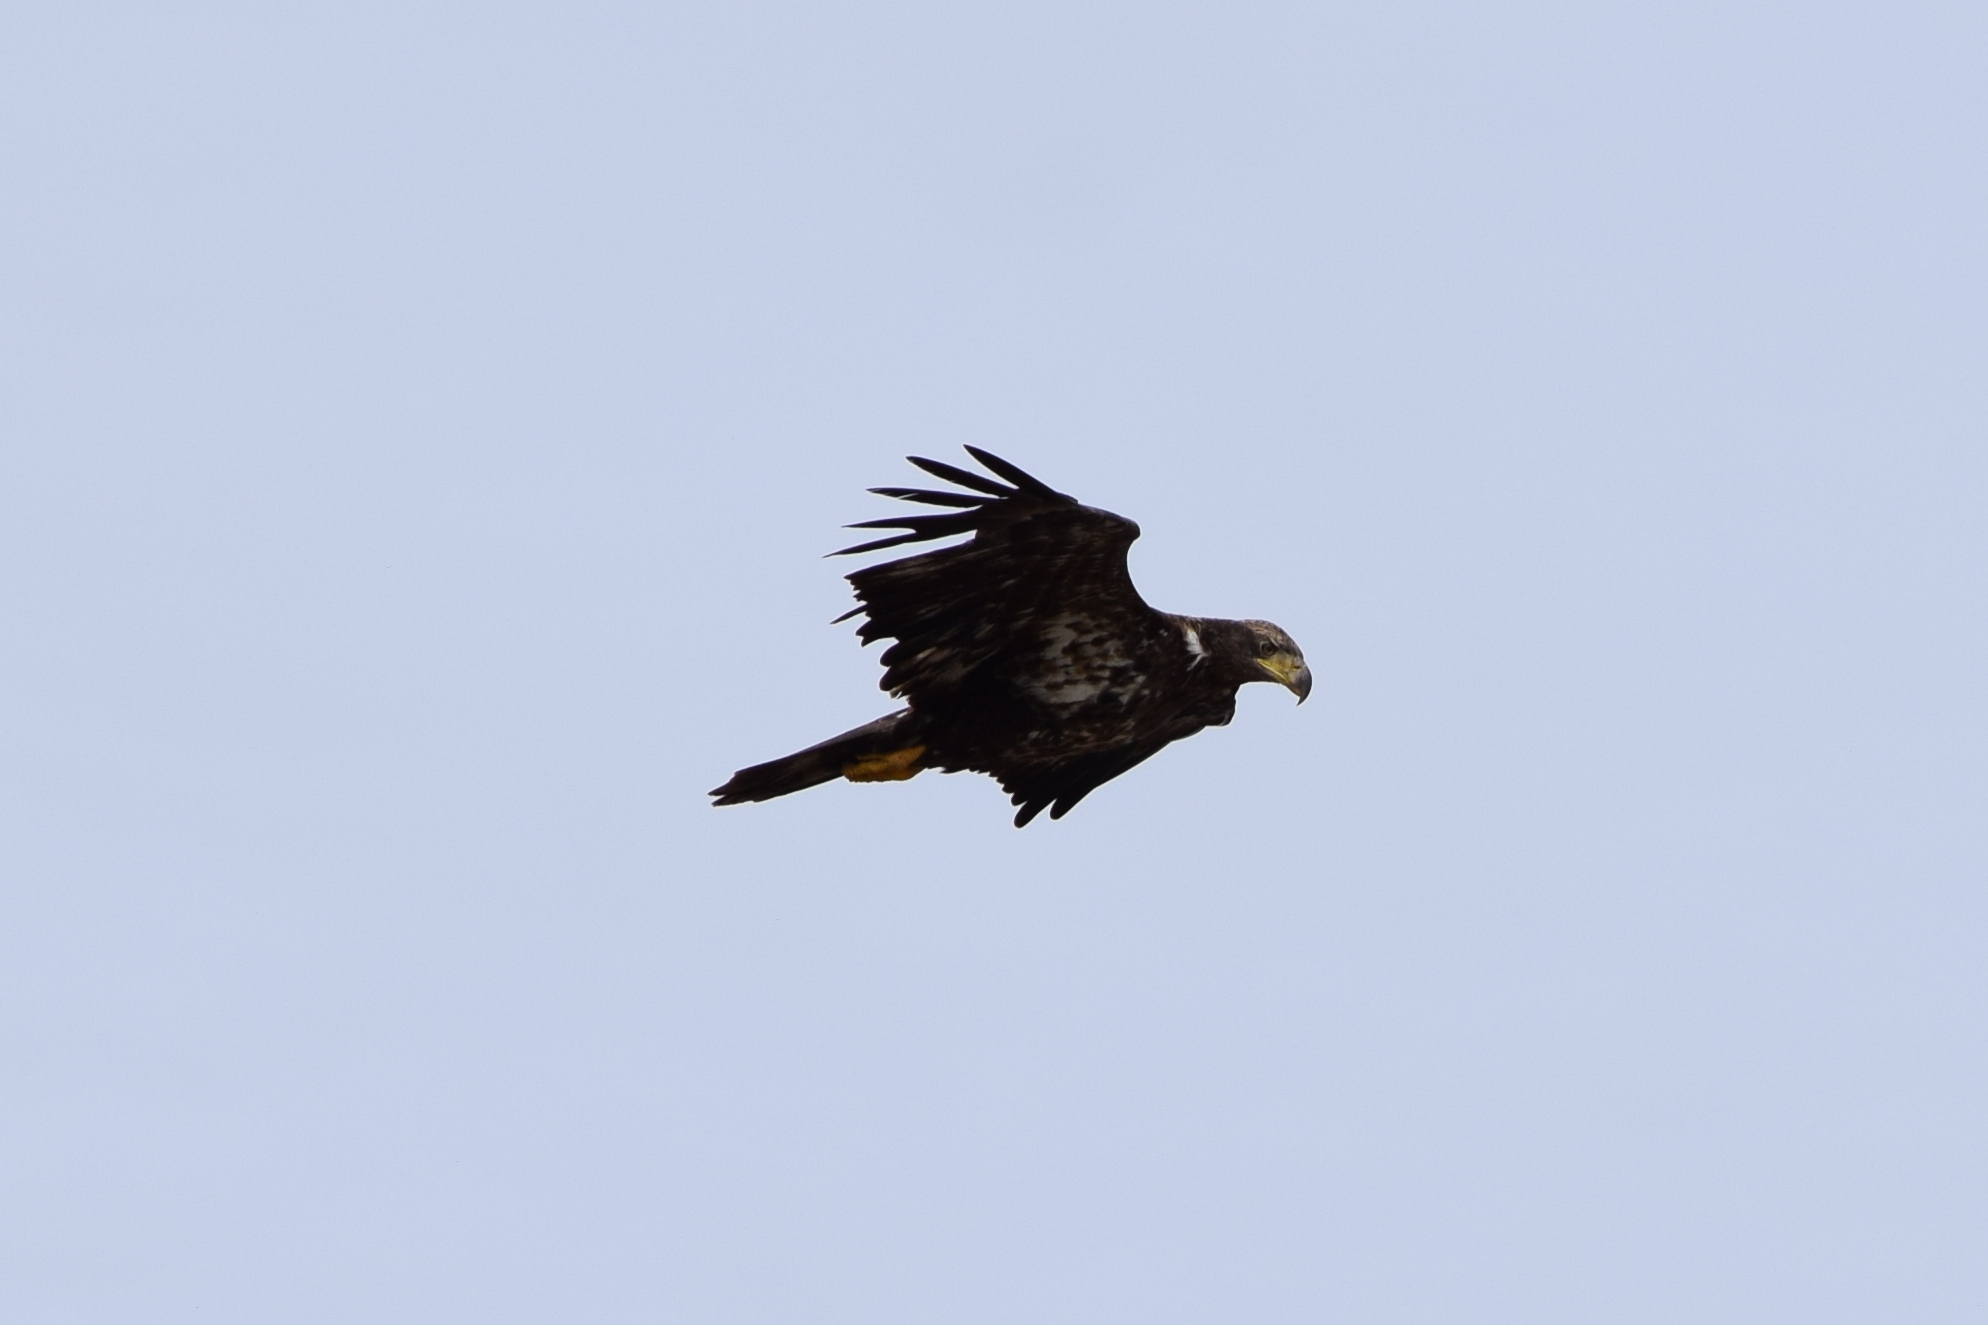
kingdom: Animalia
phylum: Chordata
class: Aves
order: Accipitriformes
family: Accipitridae
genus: Haliaeetus
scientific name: Haliaeetus leucocephalus
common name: Bald eagle
